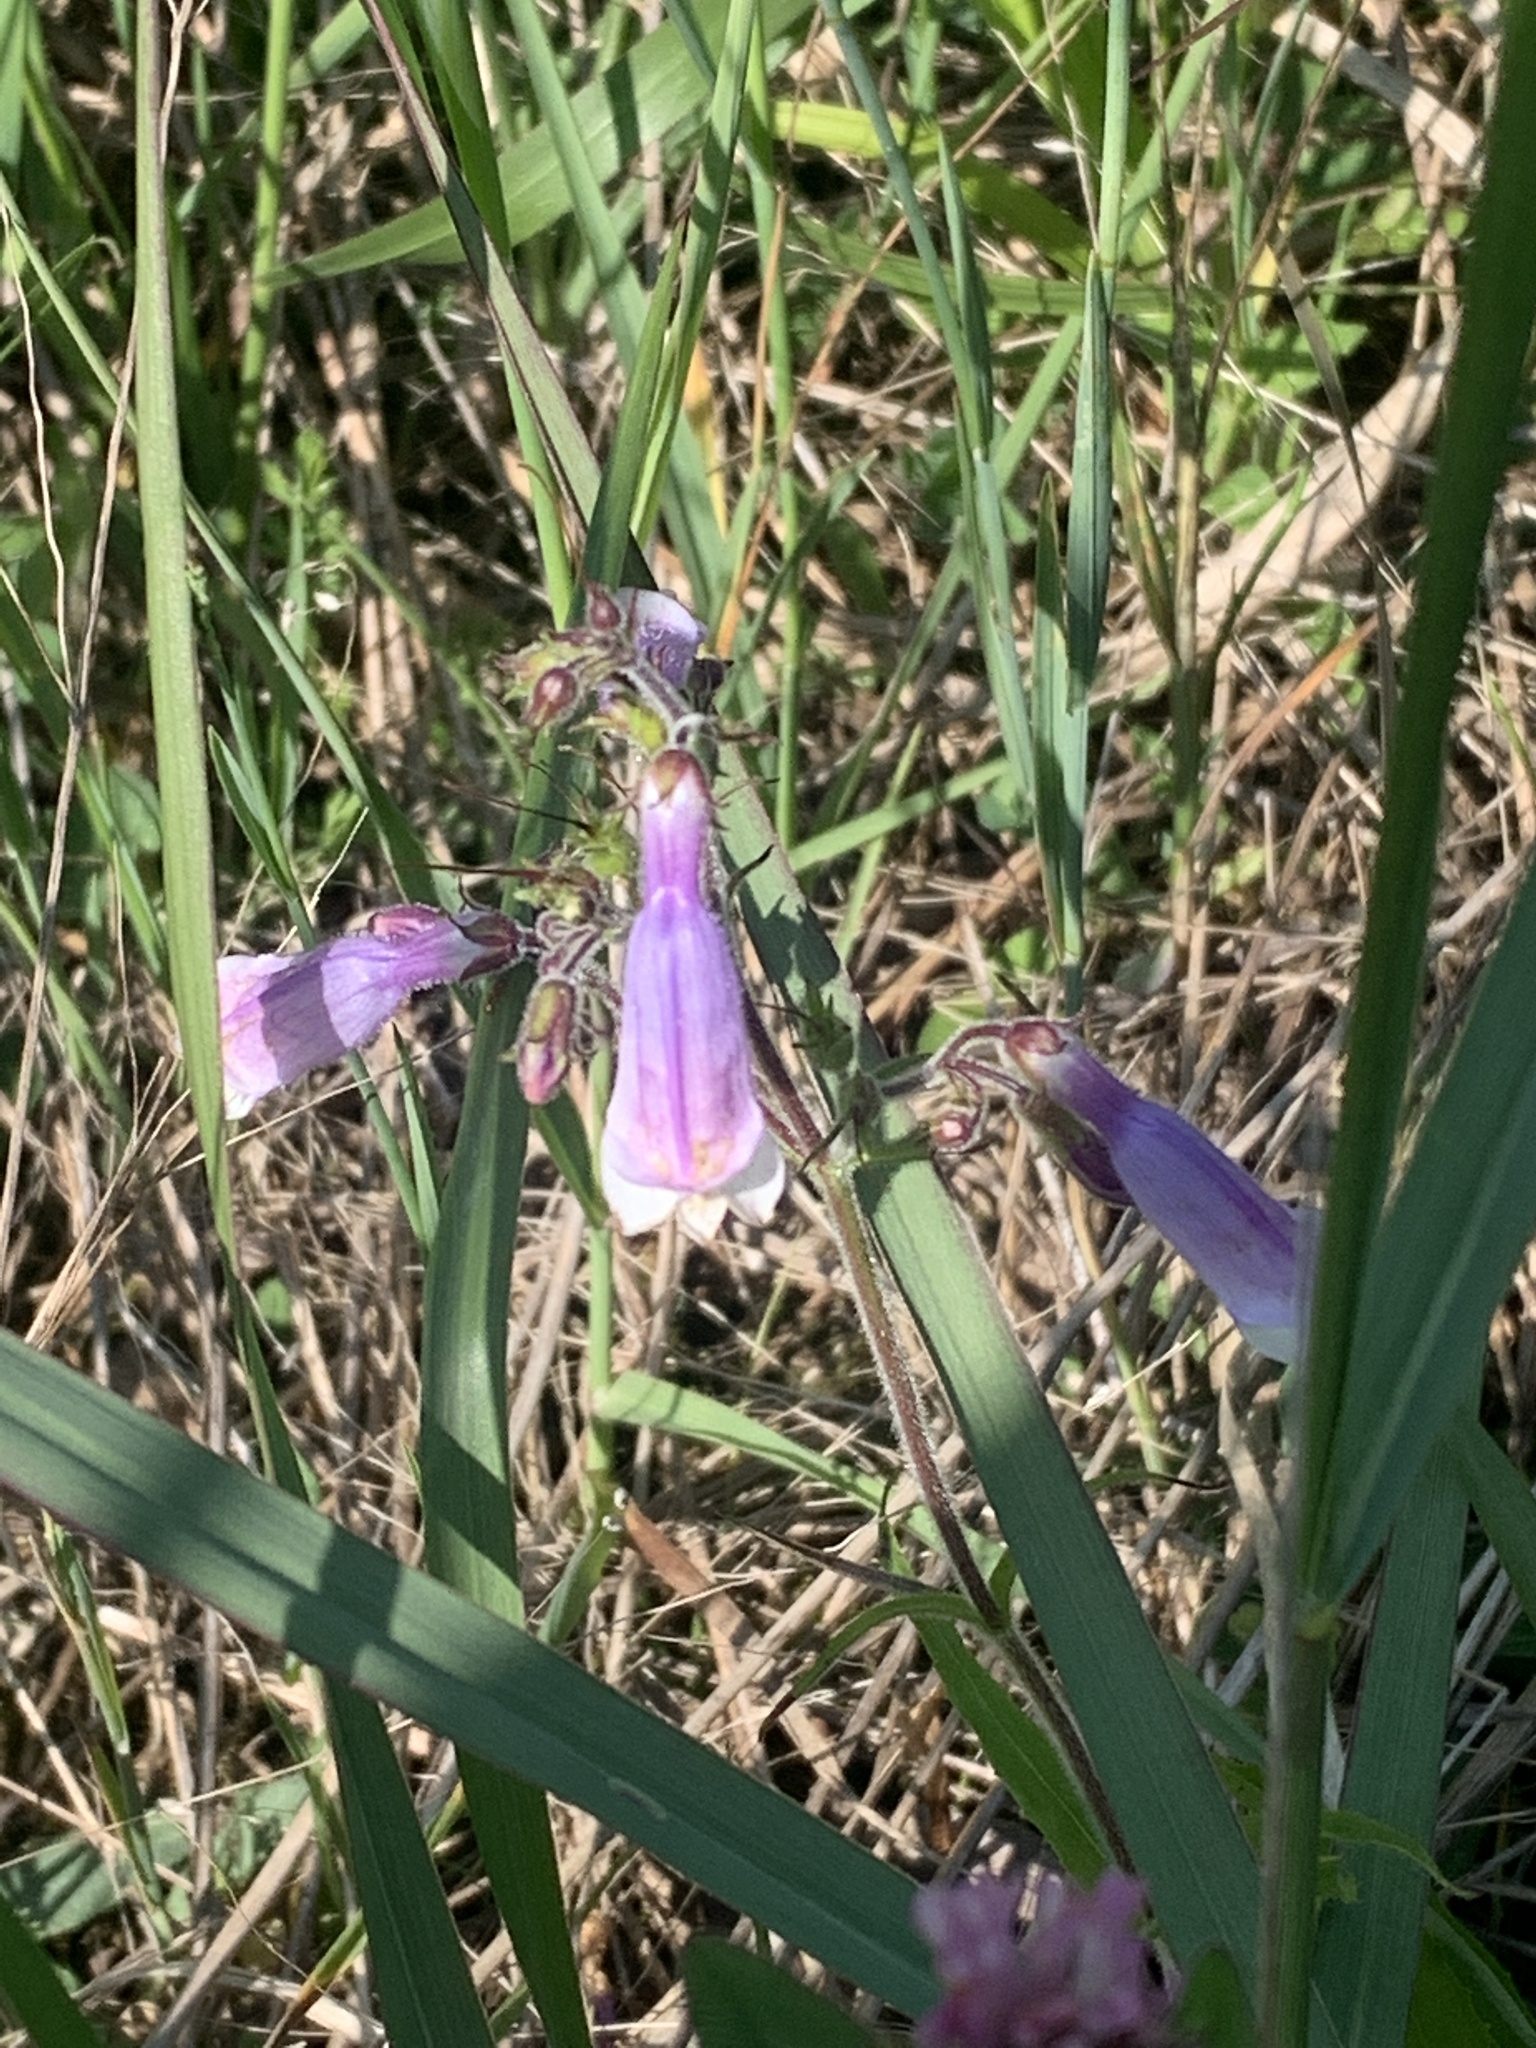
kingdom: Plantae
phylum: Tracheophyta
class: Magnoliopsida
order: Lamiales
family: Plantaginaceae
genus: Penstemon
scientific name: Penstemon hirsutus
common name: Hairy beardtongue
